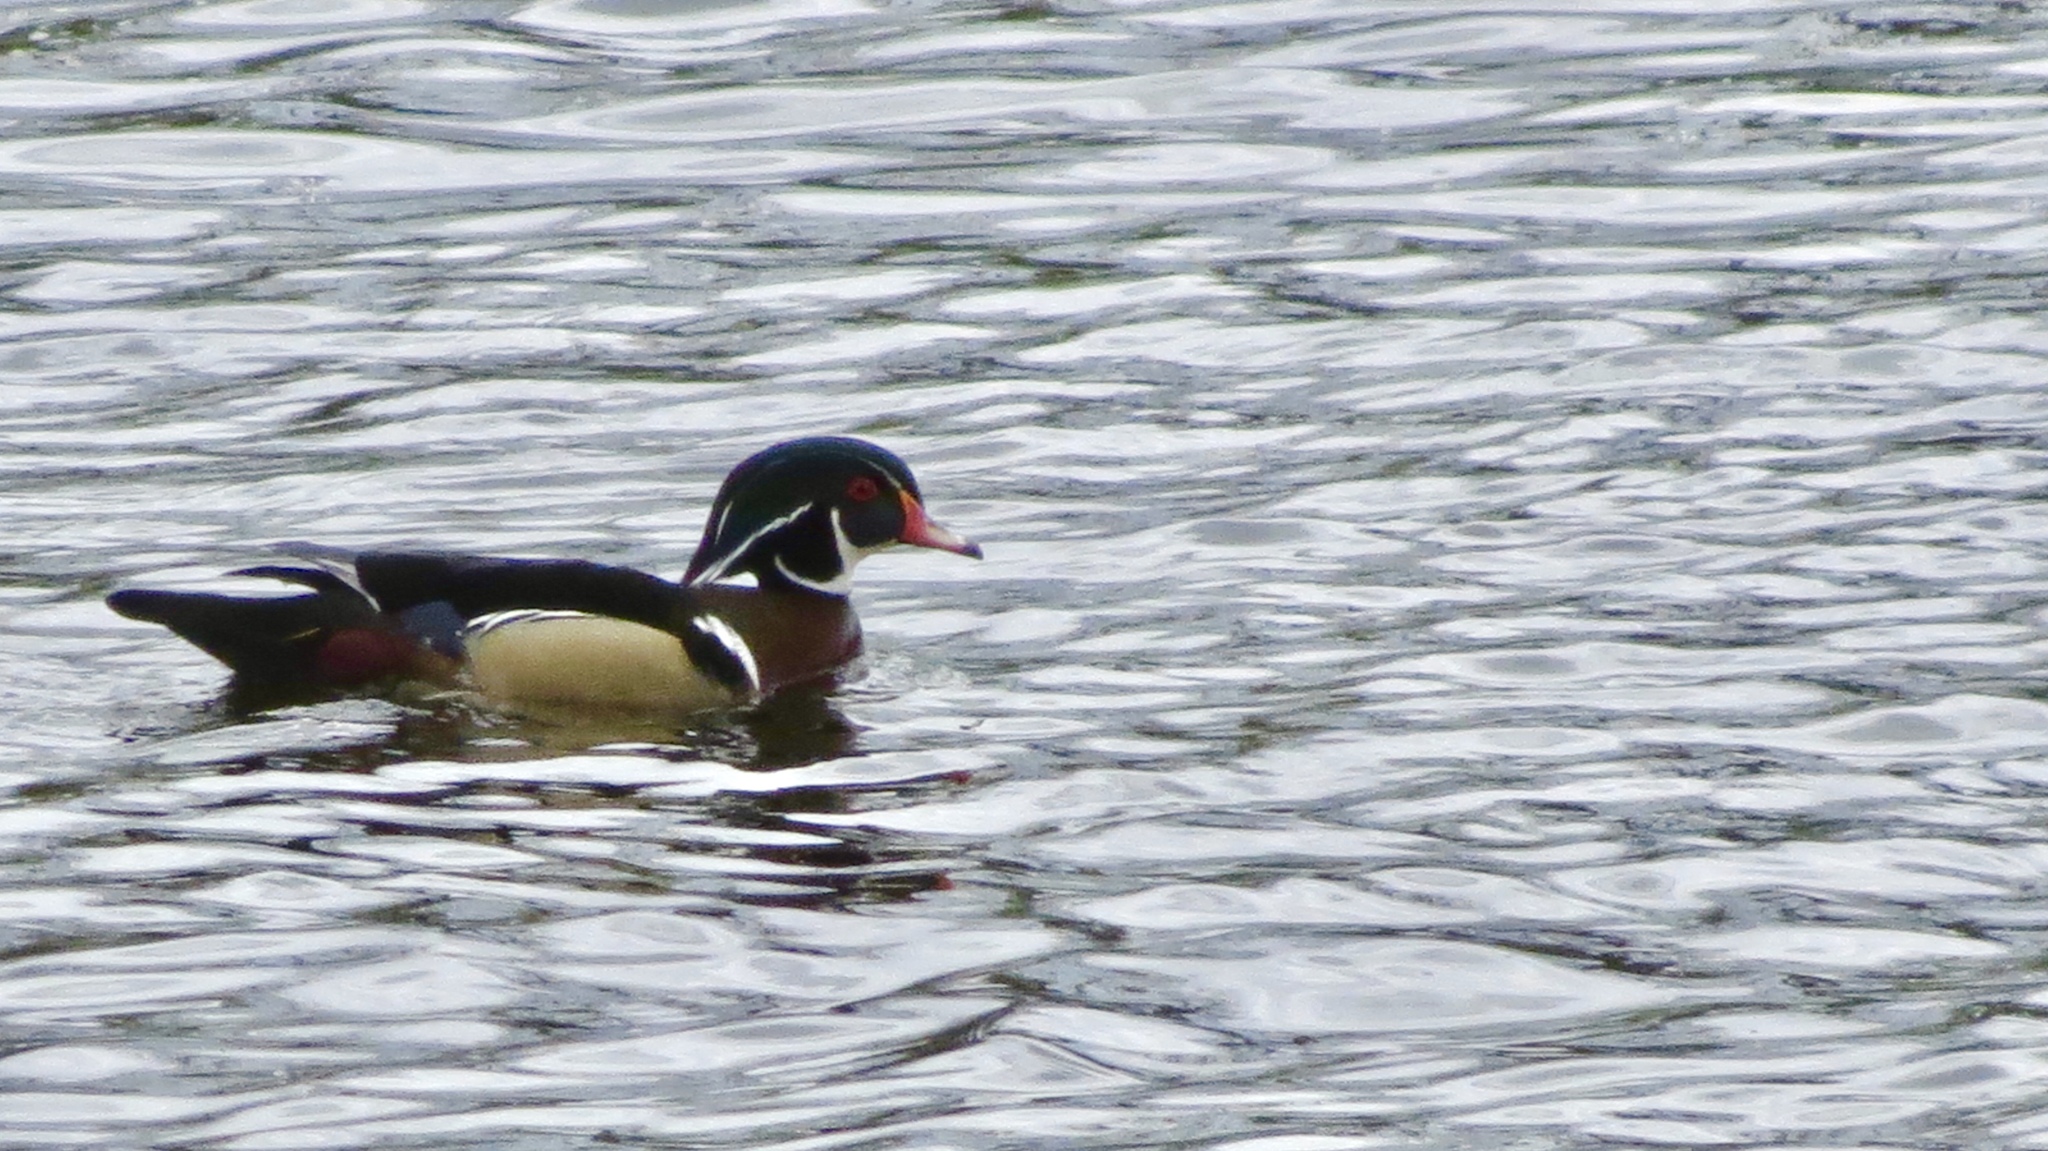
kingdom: Animalia
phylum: Chordata
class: Aves
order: Anseriformes
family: Anatidae
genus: Aix
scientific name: Aix sponsa
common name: Wood duck
